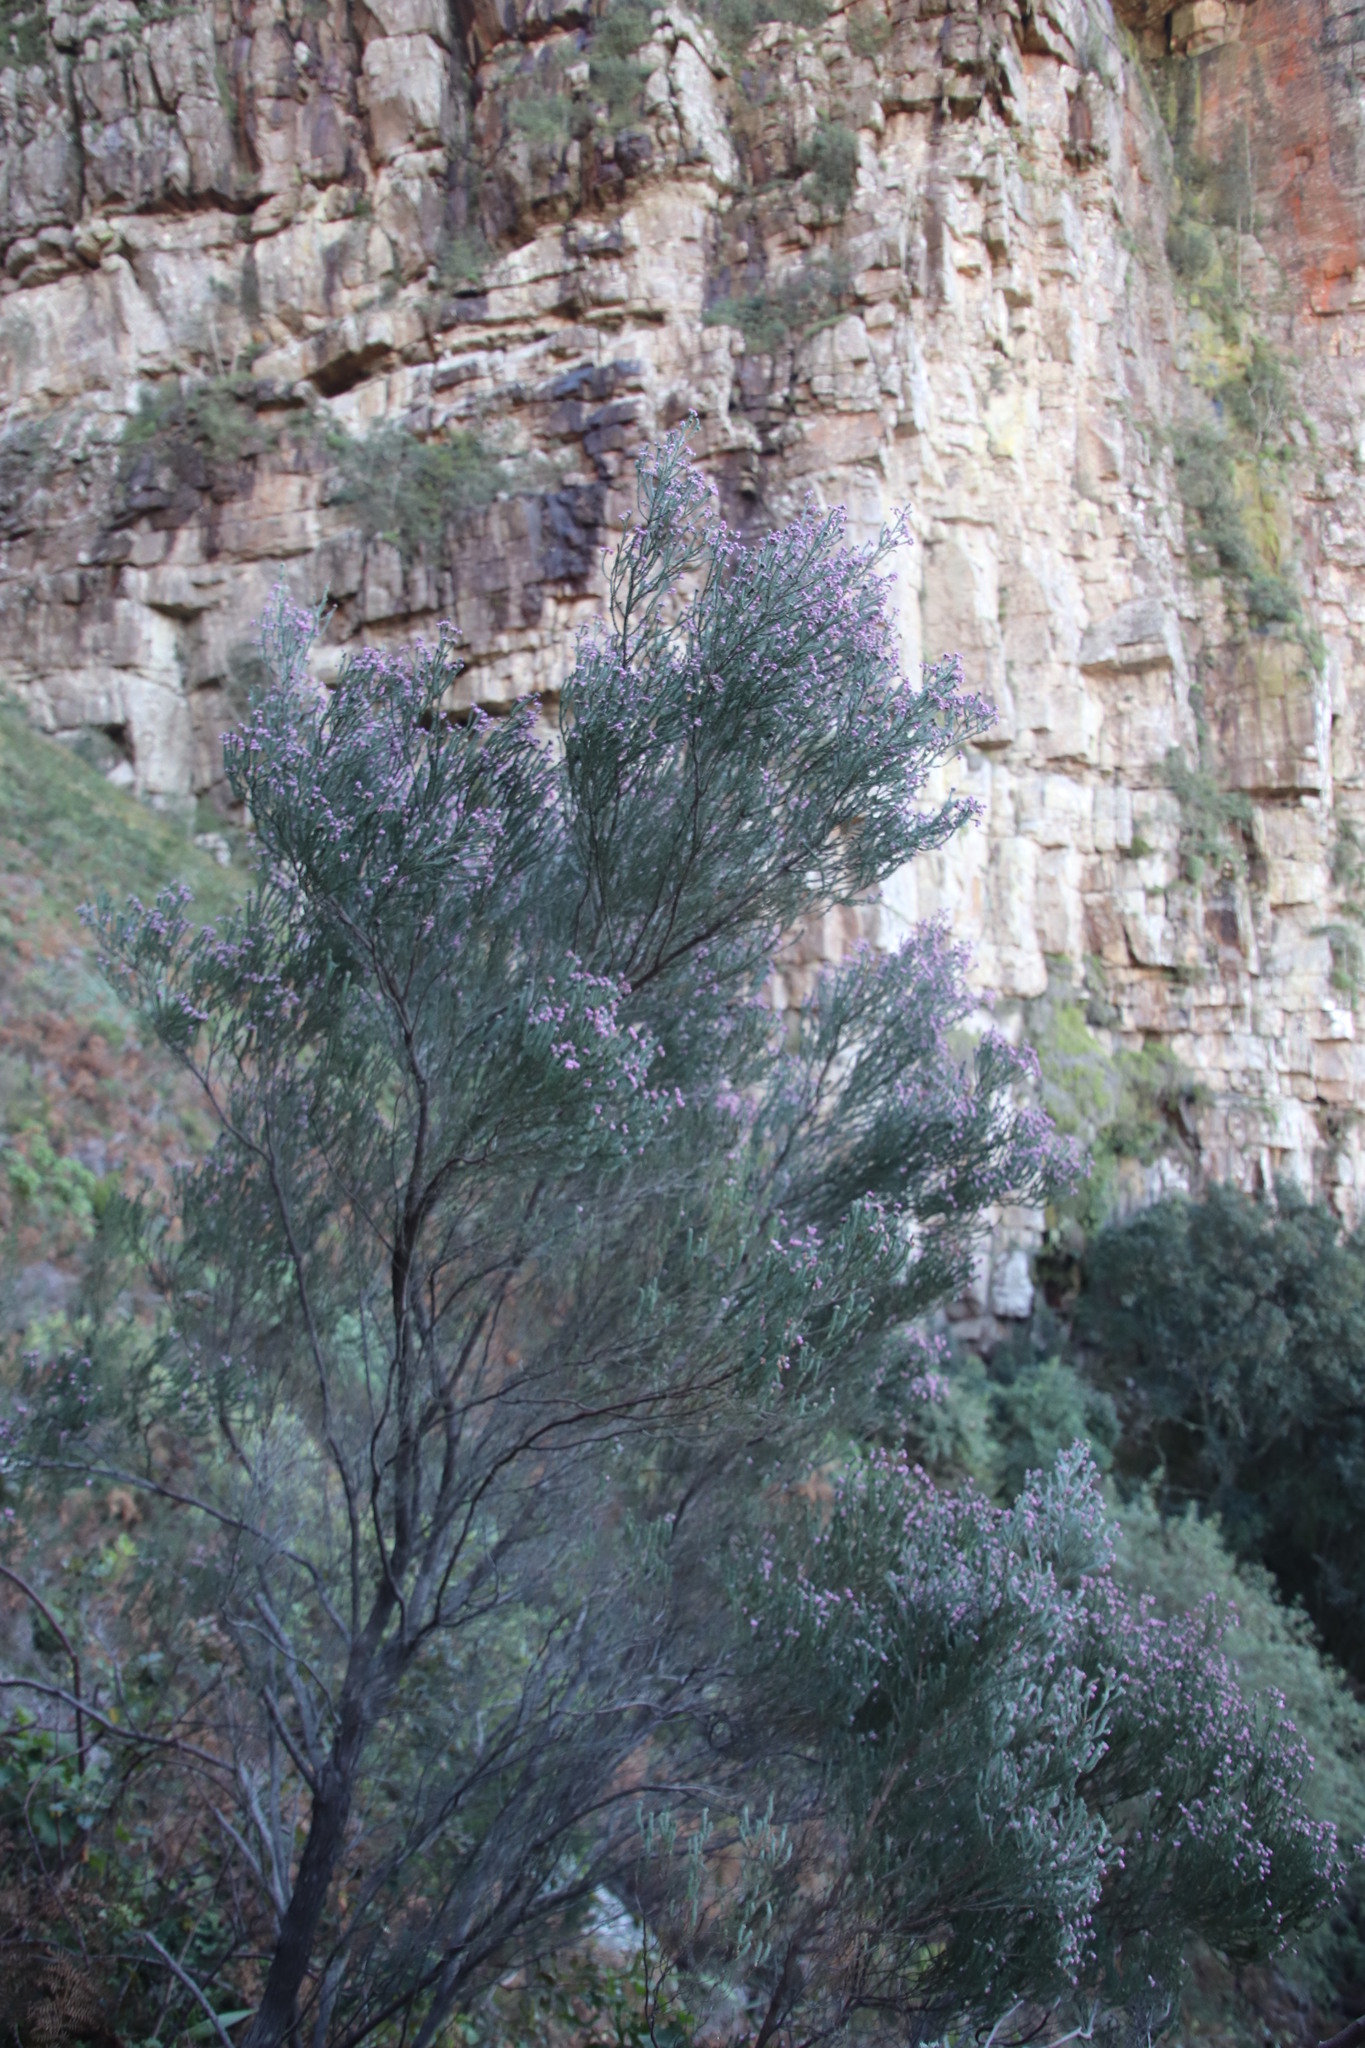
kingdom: Plantae
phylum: Tracheophyta
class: Magnoliopsida
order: Ericales
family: Ericaceae
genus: Erica
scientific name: Erica baccans
